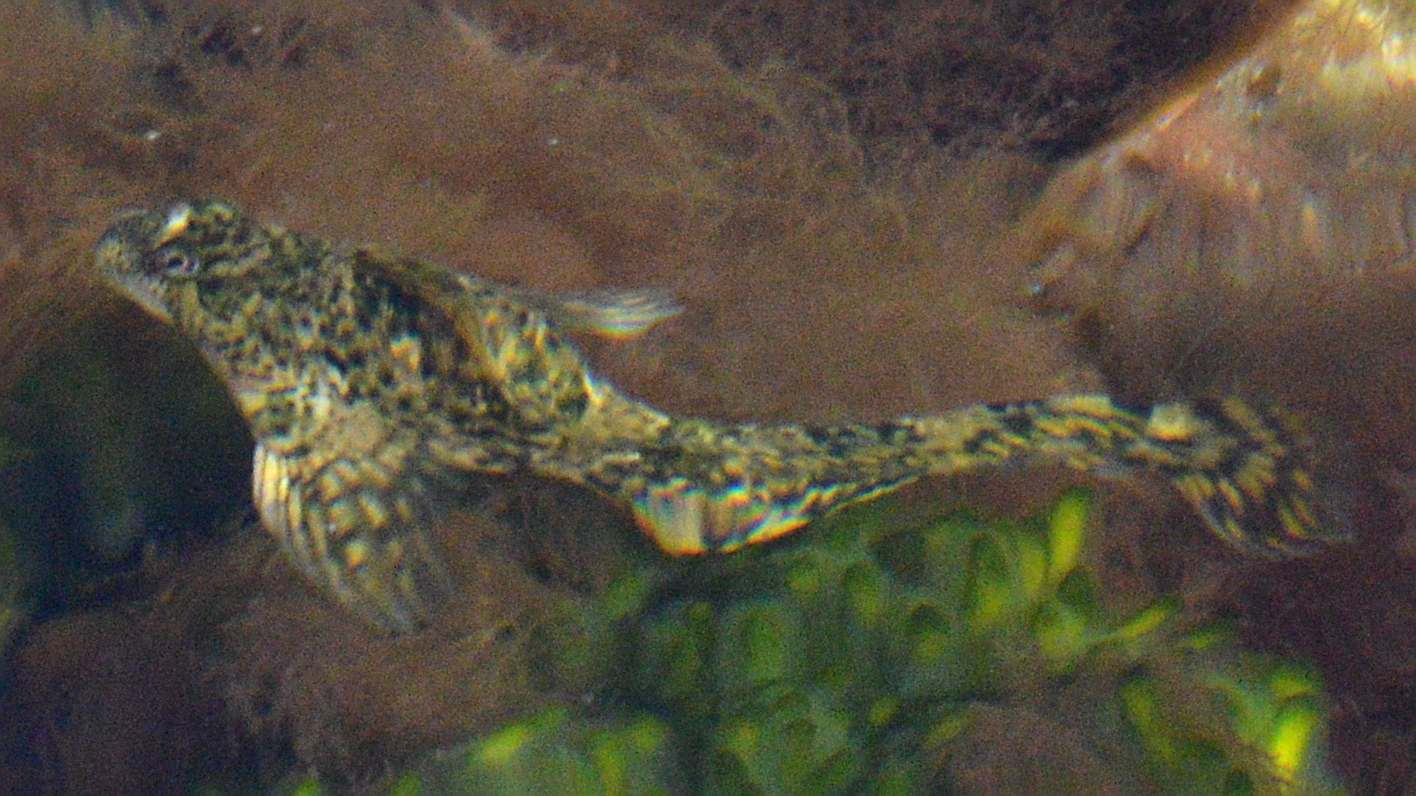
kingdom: Animalia
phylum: Chordata
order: Perciformes
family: Blenniidae
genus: Lipophrys
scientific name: Lipophrys pholis
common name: Shanny
